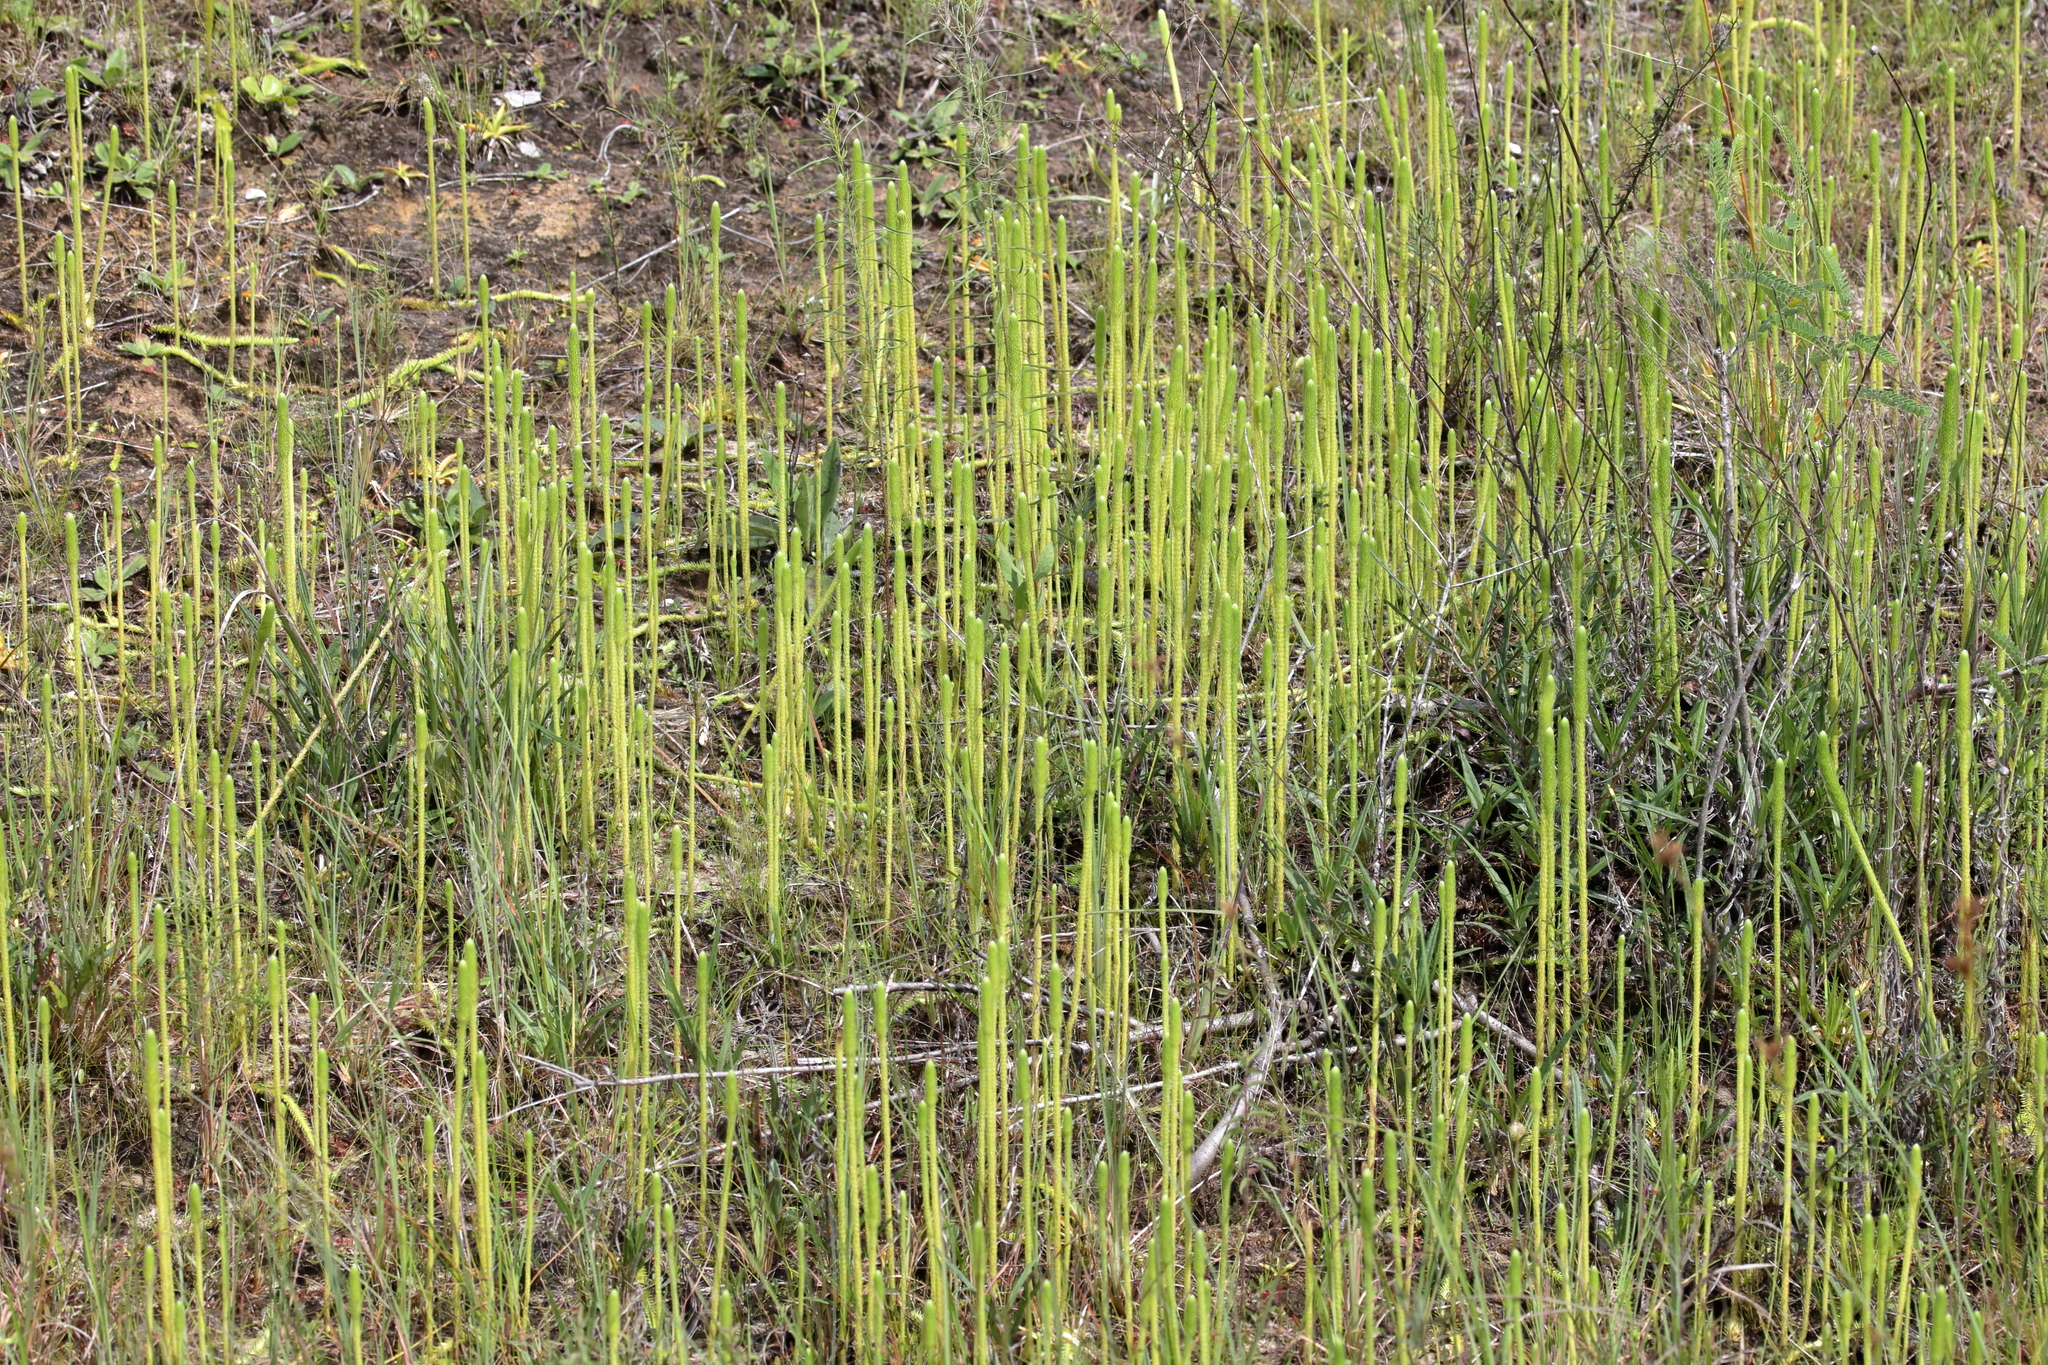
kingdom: Plantae
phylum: Tracheophyta
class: Lycopodiopsida
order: Lycopodiales
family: Lycopodiaceae
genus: Pseudolycopodiella
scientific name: Pseudolycopodiella caroliniana
